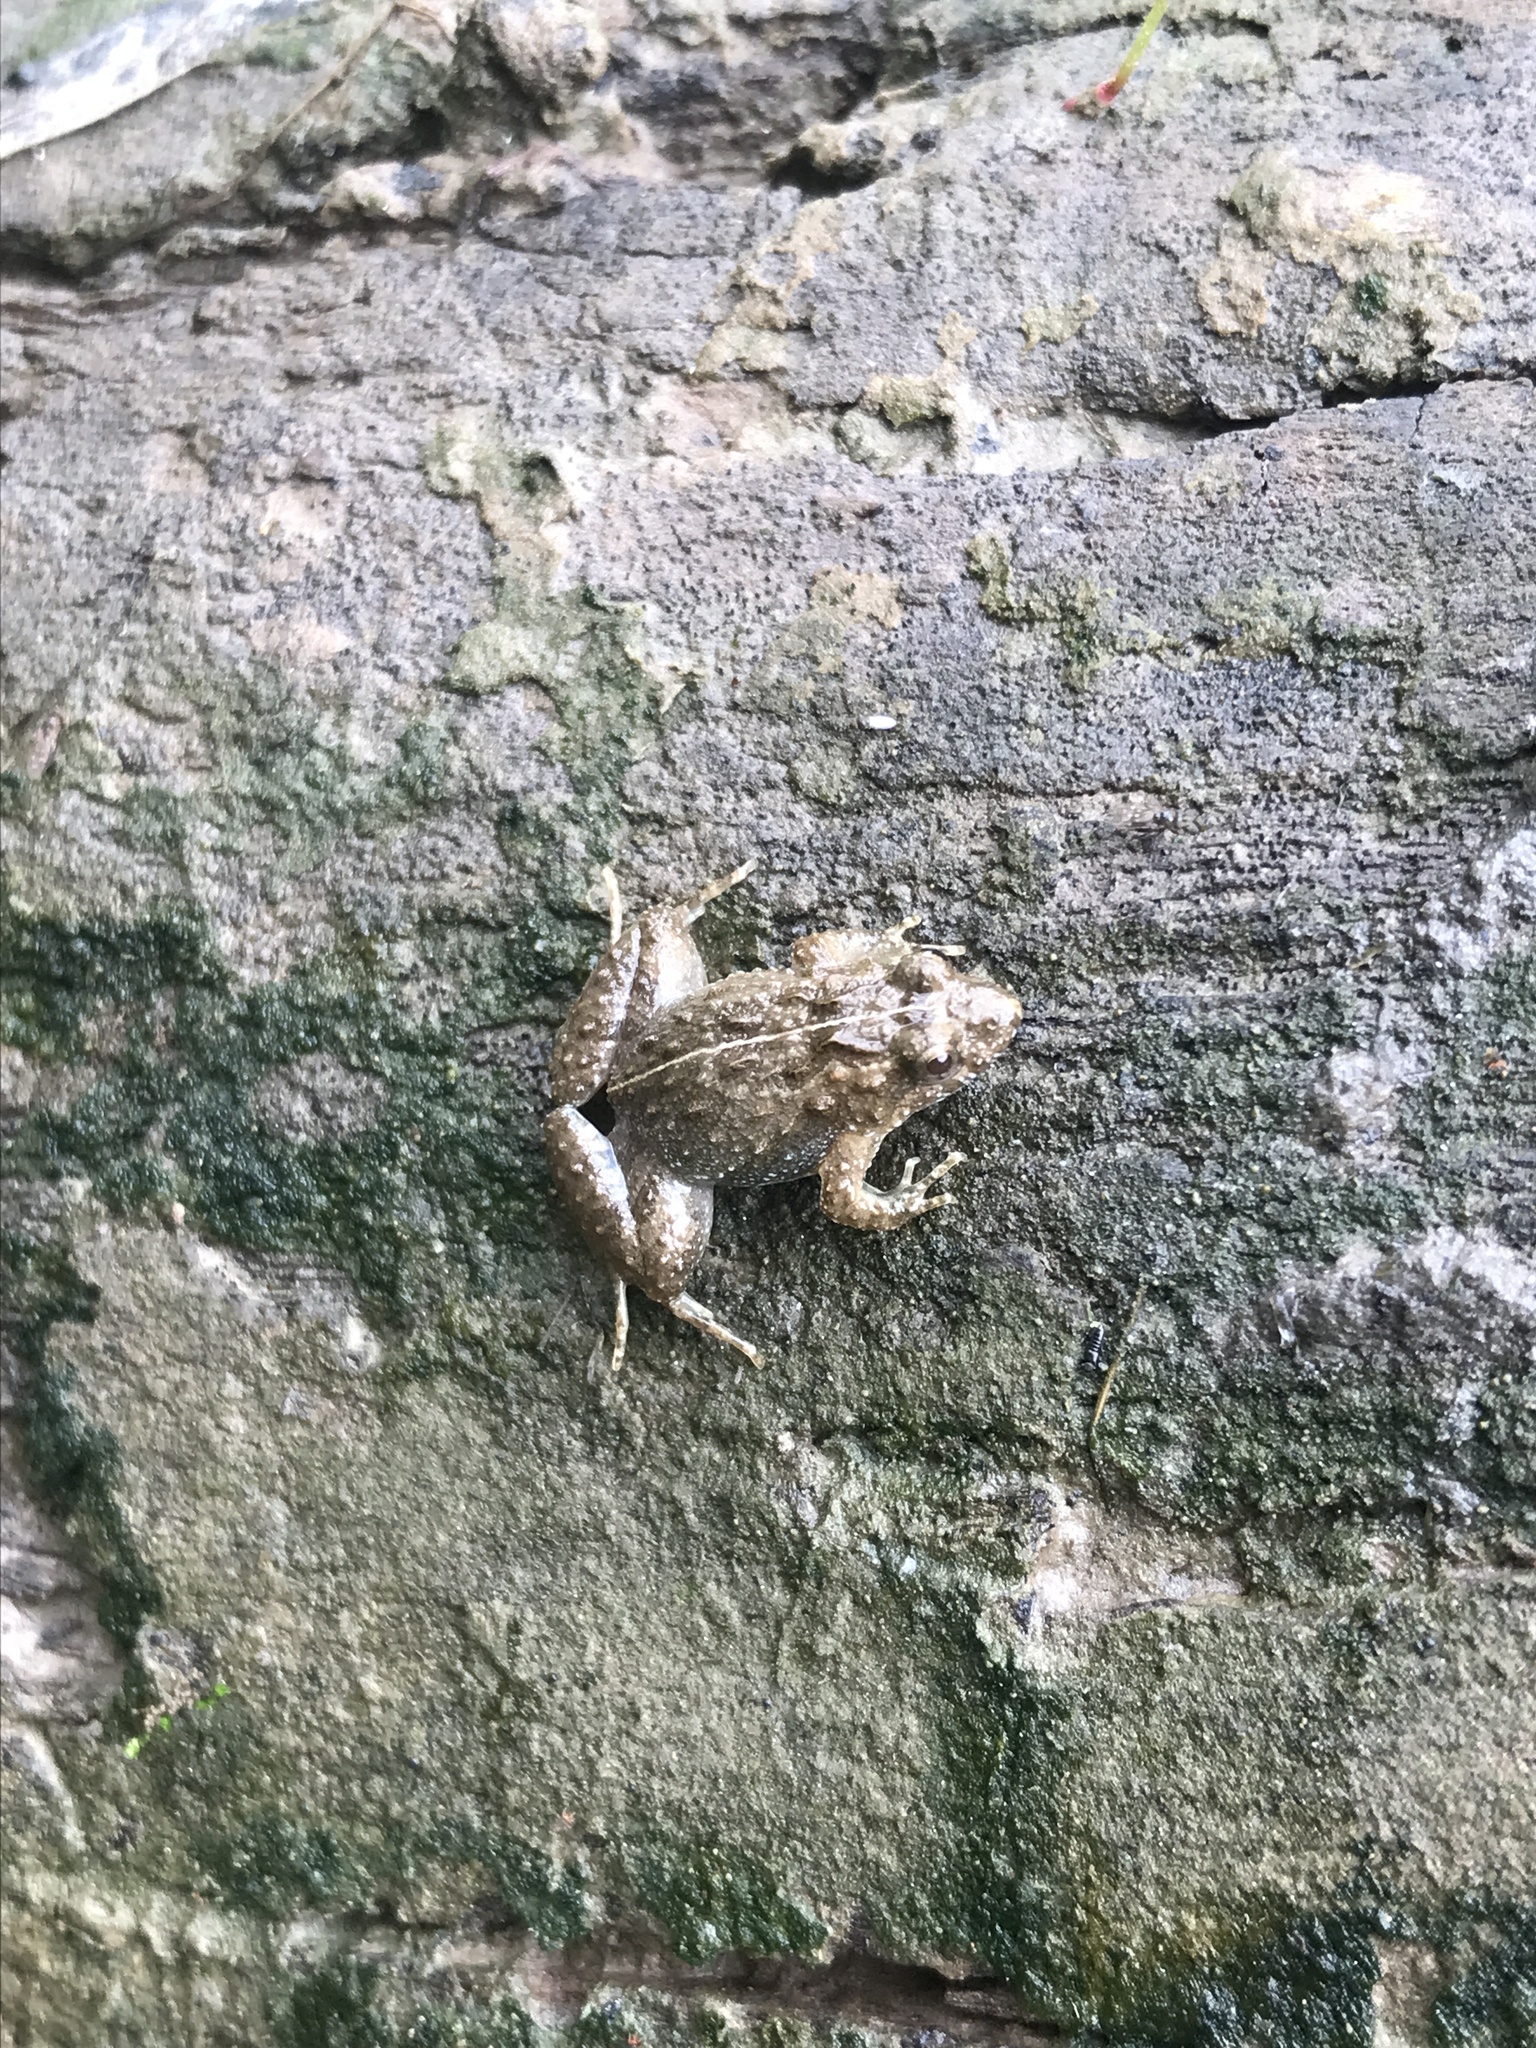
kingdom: Animalia
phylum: Chordata
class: Amphibia
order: Anura
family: Leptodactylidae
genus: Pseudopaludicola
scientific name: Pseudopaludicola falcipes
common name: Hensel’s swamp frog
